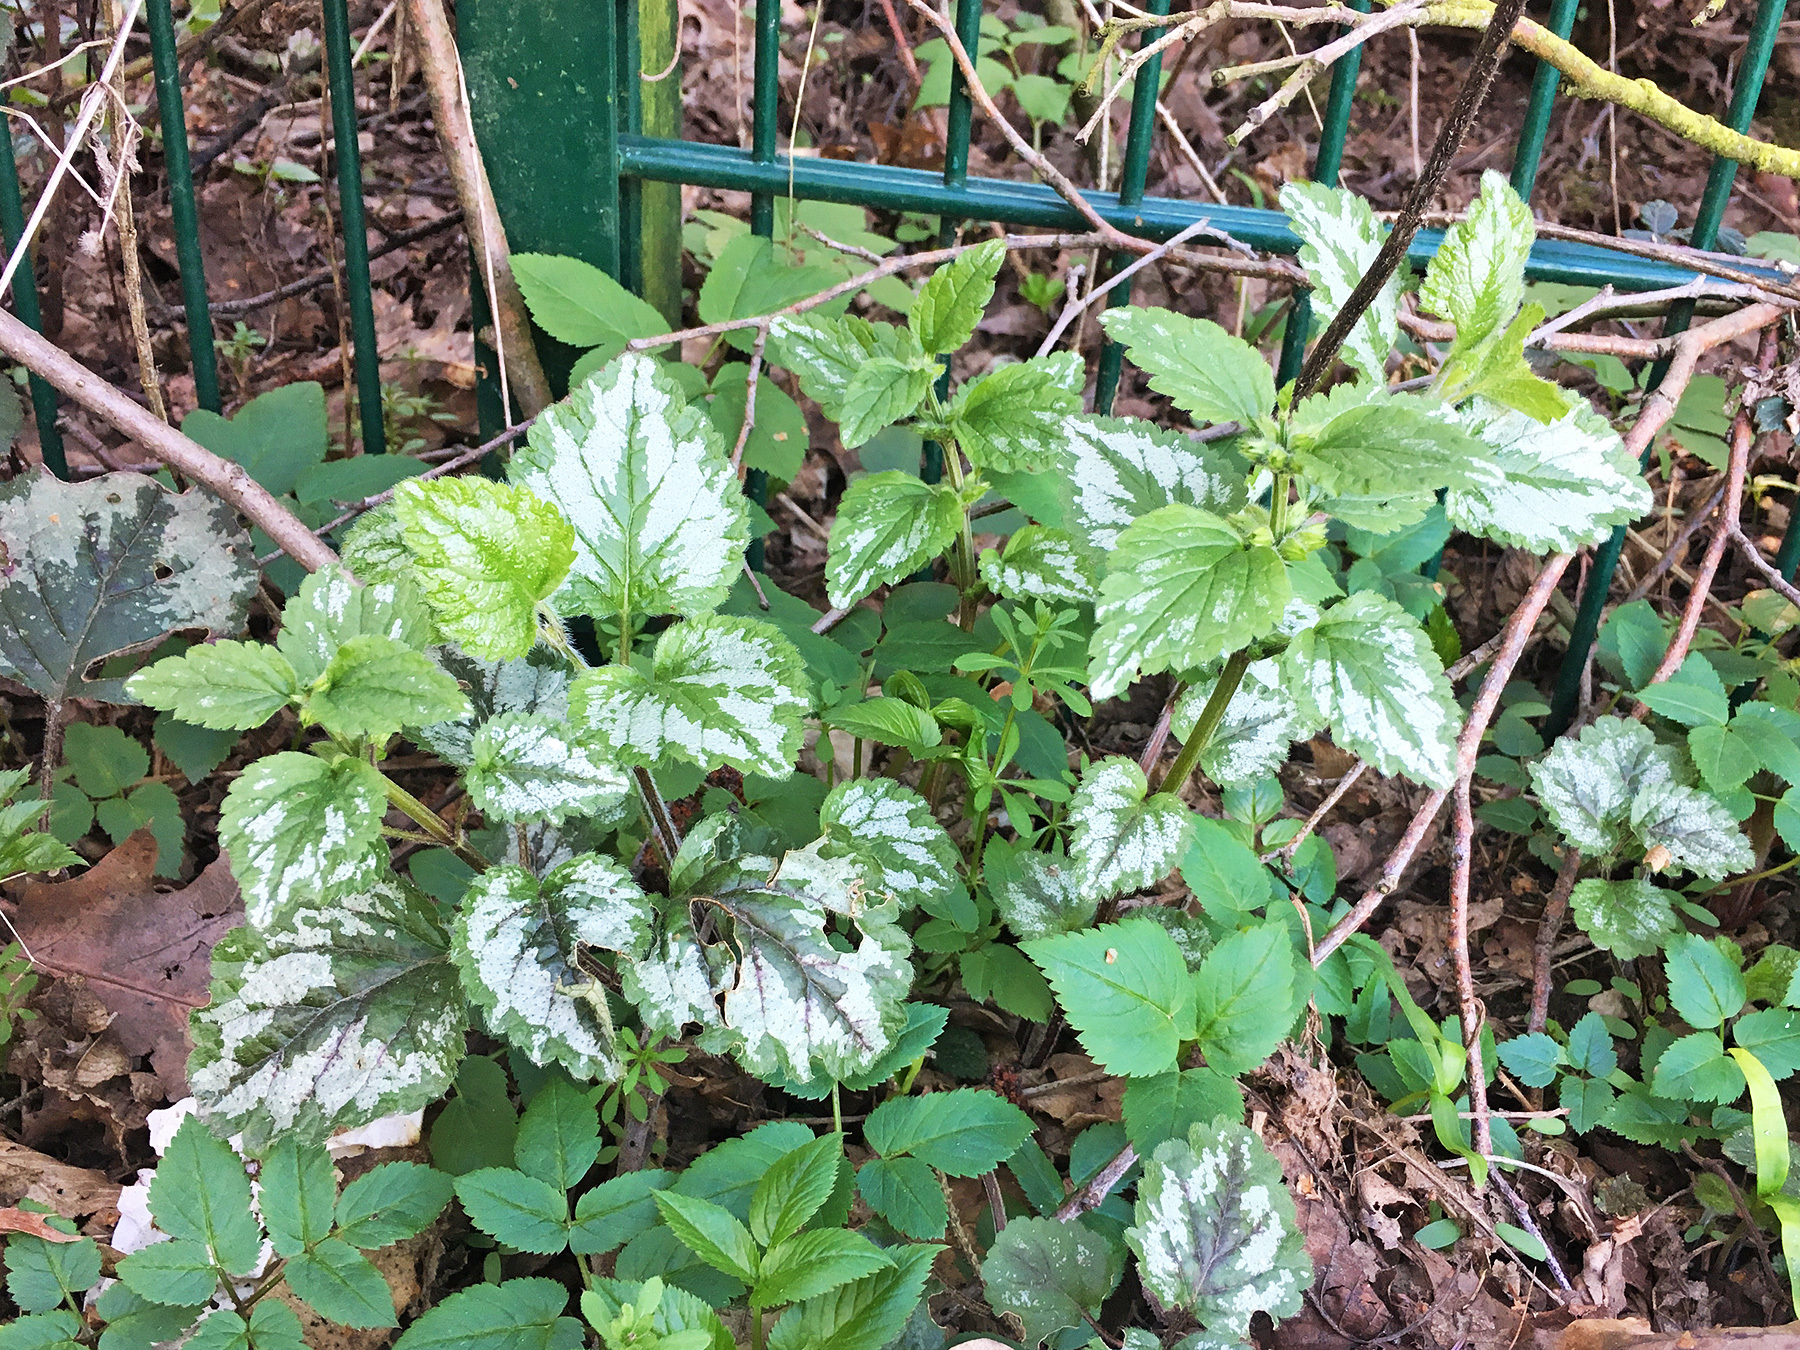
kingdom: Plantae
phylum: Tracheophyta
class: Magnoliopsida
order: Lamiales
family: Lamiaceae
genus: Lamium
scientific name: Lamium galeobdolon
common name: Yellow archangel
